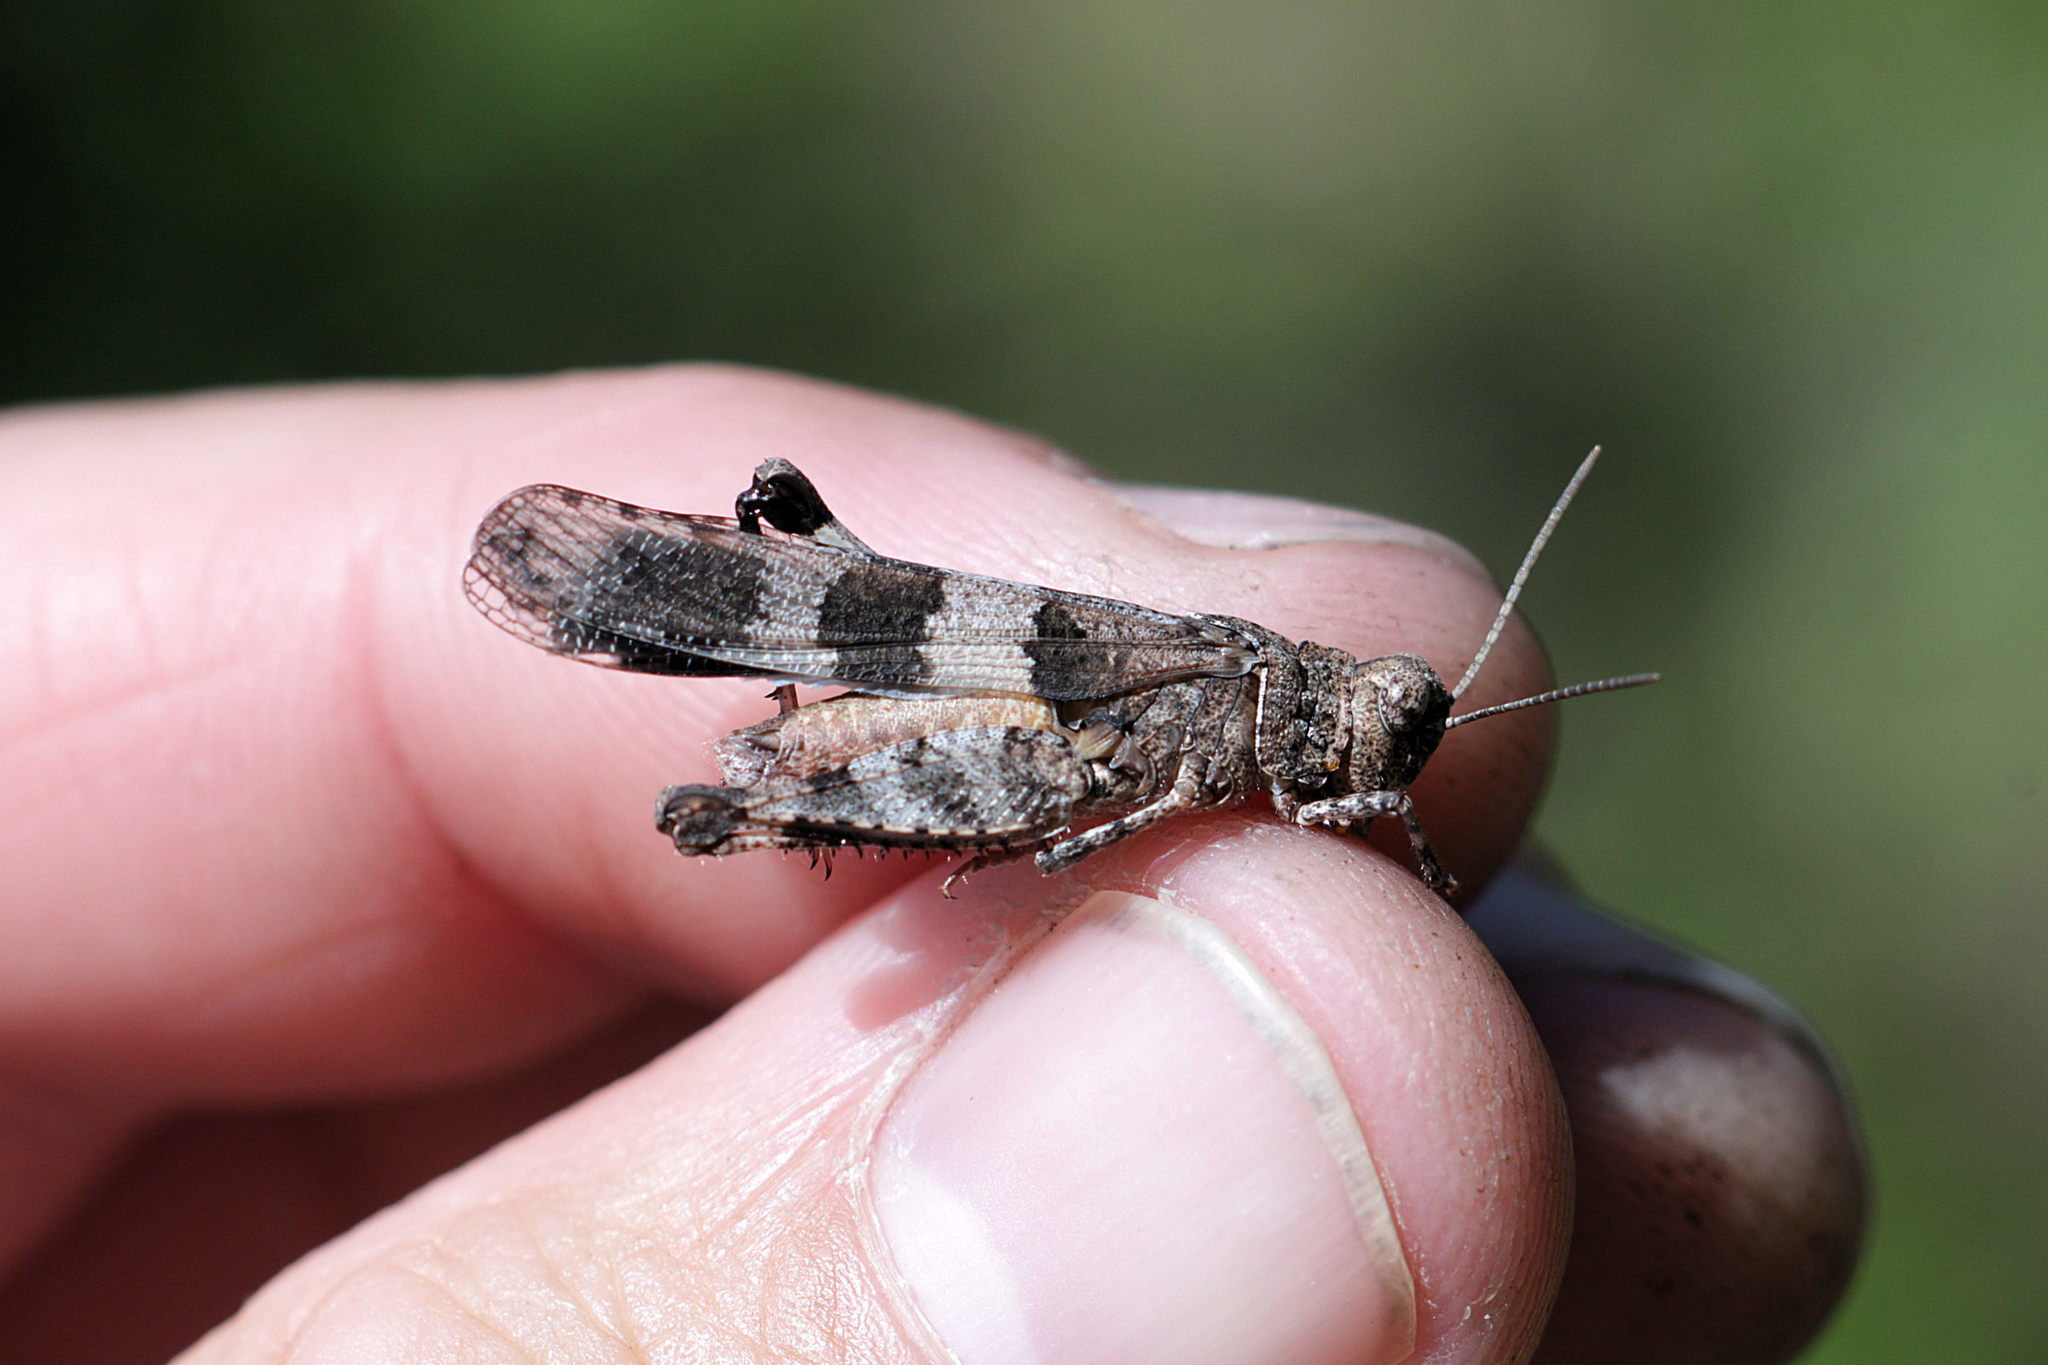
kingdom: Animalia
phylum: Arthropoda
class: Insecta
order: Orthoptera
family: Acrididae
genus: Oedipoda
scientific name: Oedipoda caerulescens
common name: Blue-winged grasshopper
